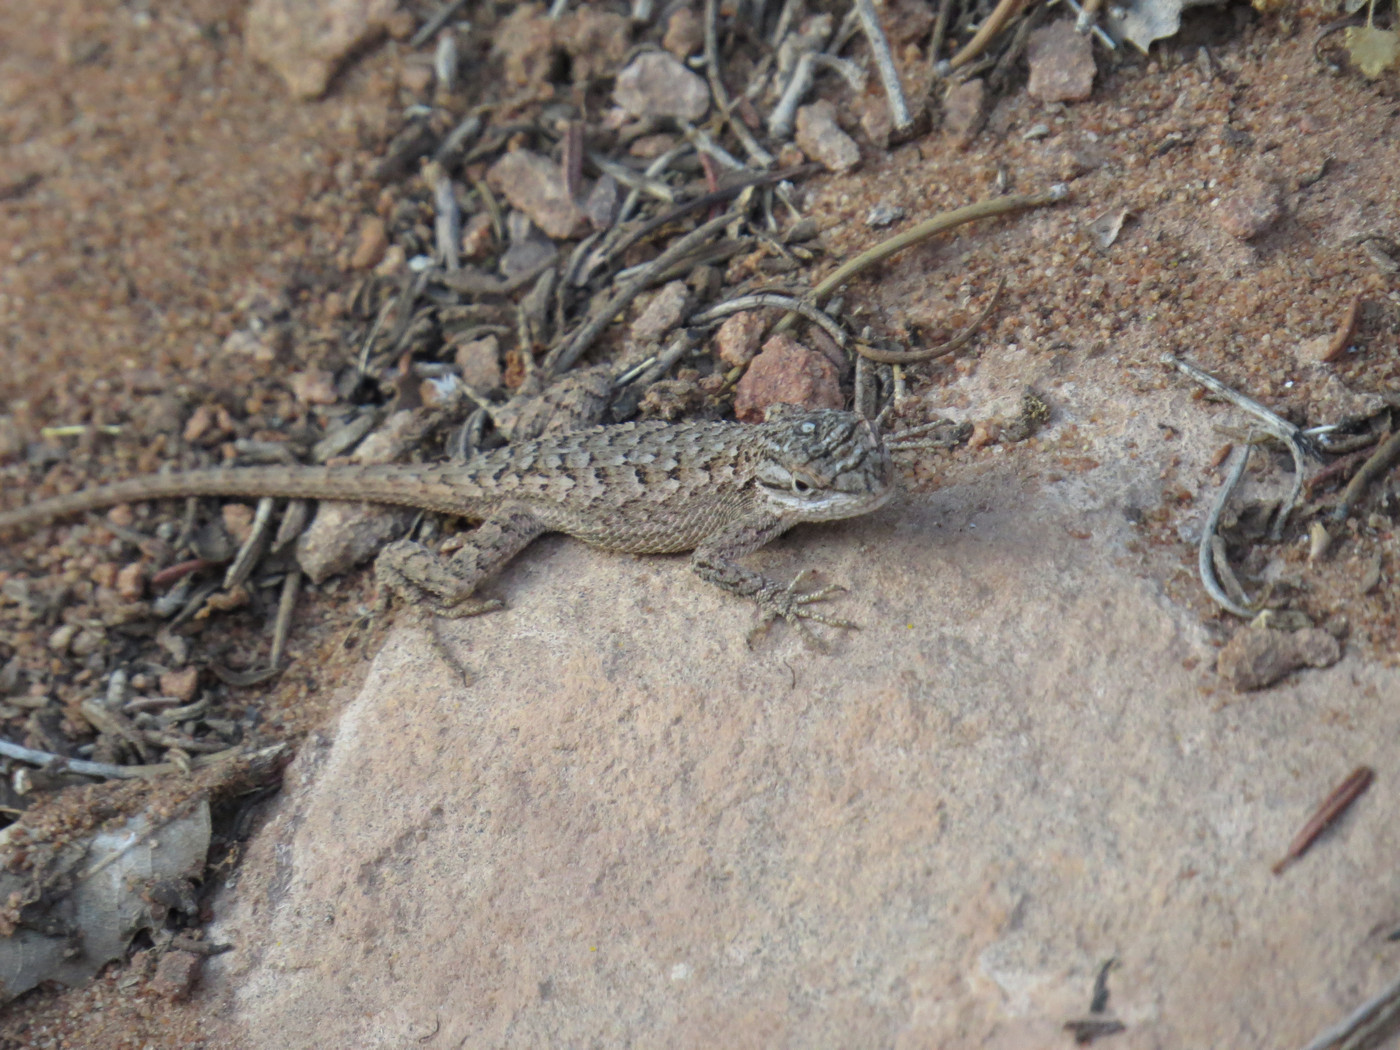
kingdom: Animalia
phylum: Chordata
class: Squamata
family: Phrynosomatidae
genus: Sceloporus
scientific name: Sceloporus tristichus
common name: Plateau fence lizard
